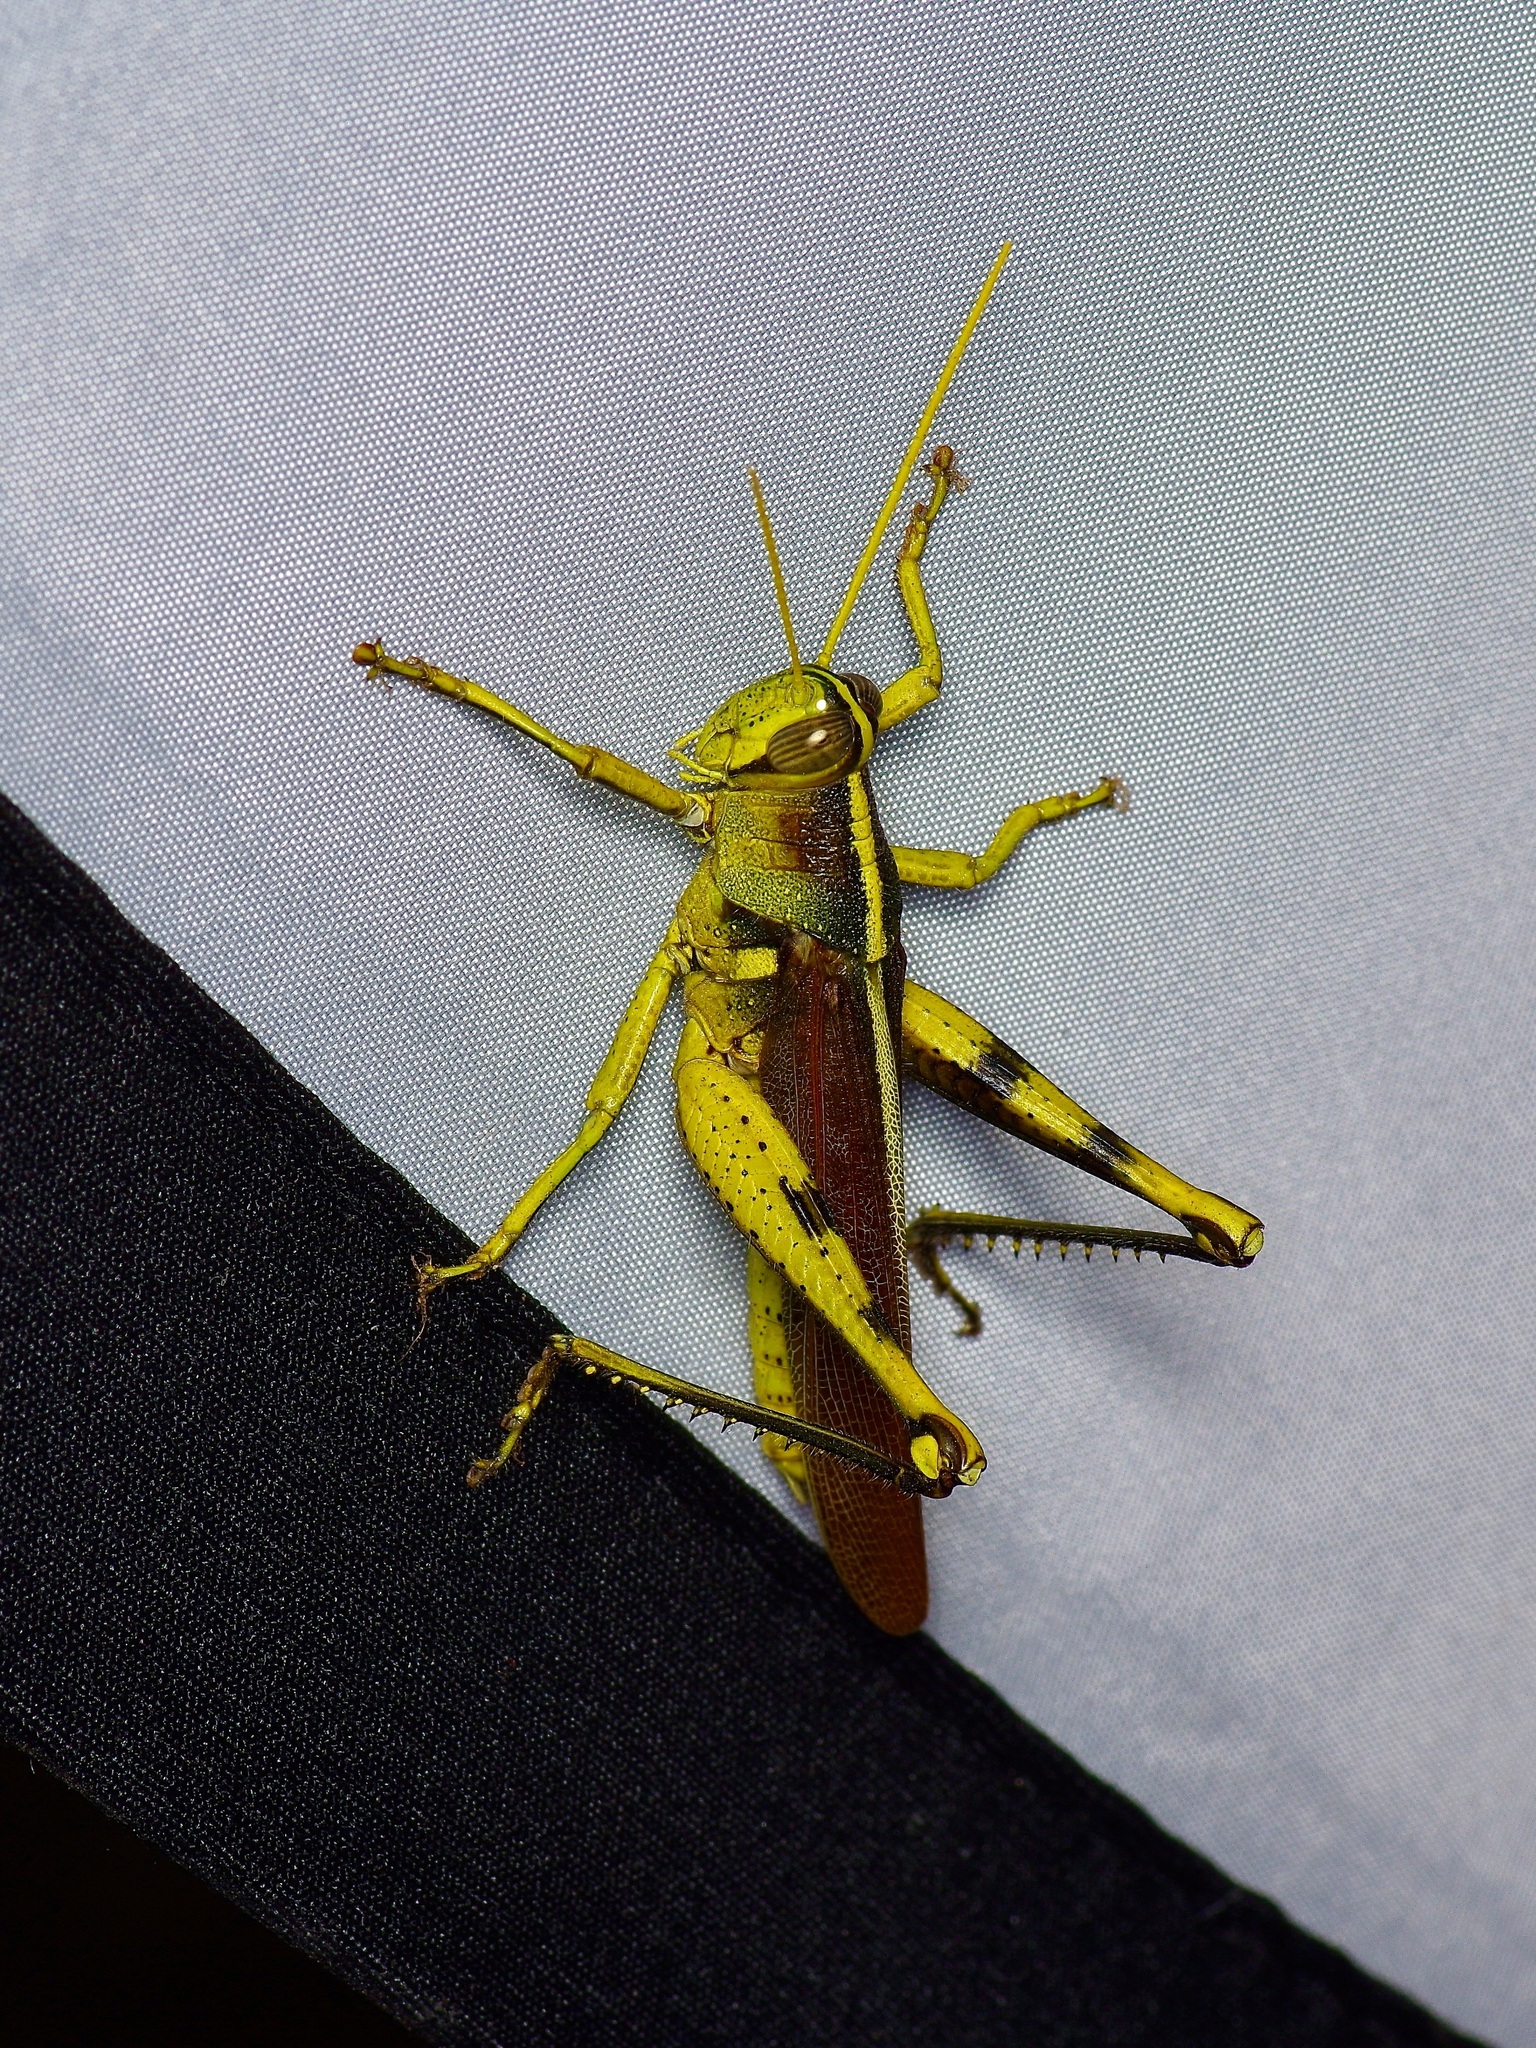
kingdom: Animalia
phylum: Arthropoda
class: Insecta
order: Orthoptera
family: Acrididae
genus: Schistocerca
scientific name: Schistocerca obscura
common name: Obscure bird grasshopper
